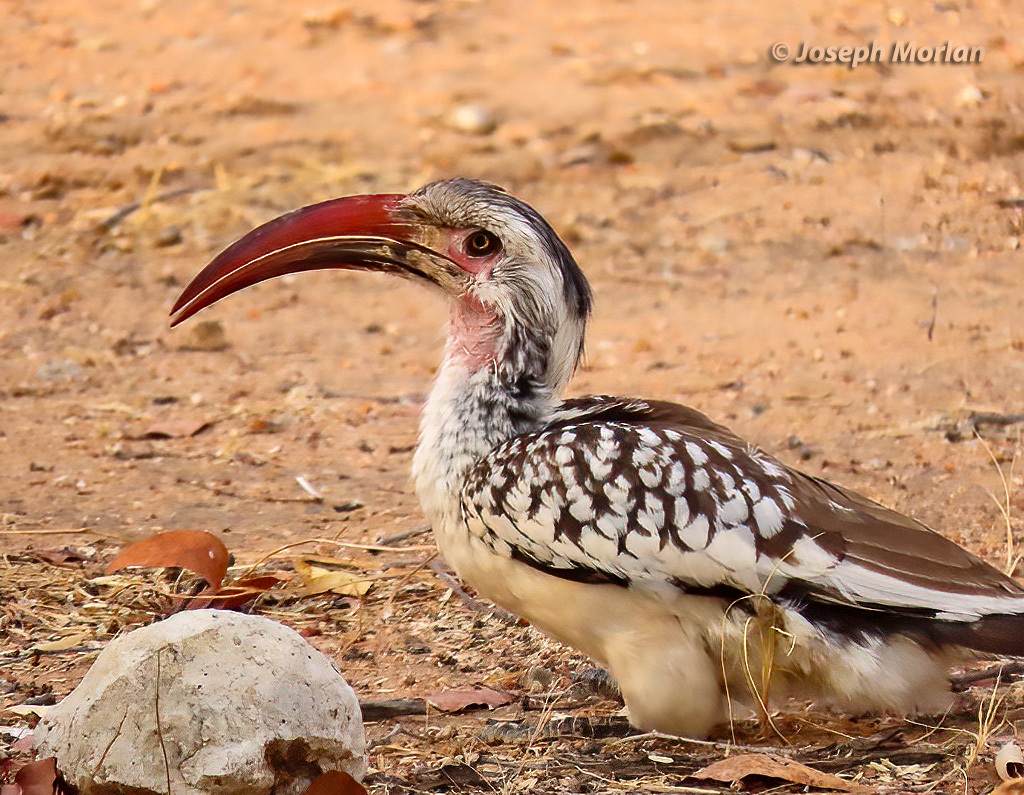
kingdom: Animalia
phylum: Chordata
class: Aves
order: Bucerotiformes
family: Bucerotidae
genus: Tockus
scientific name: Tockus rufirostris
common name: Southern red-billed hornbill
